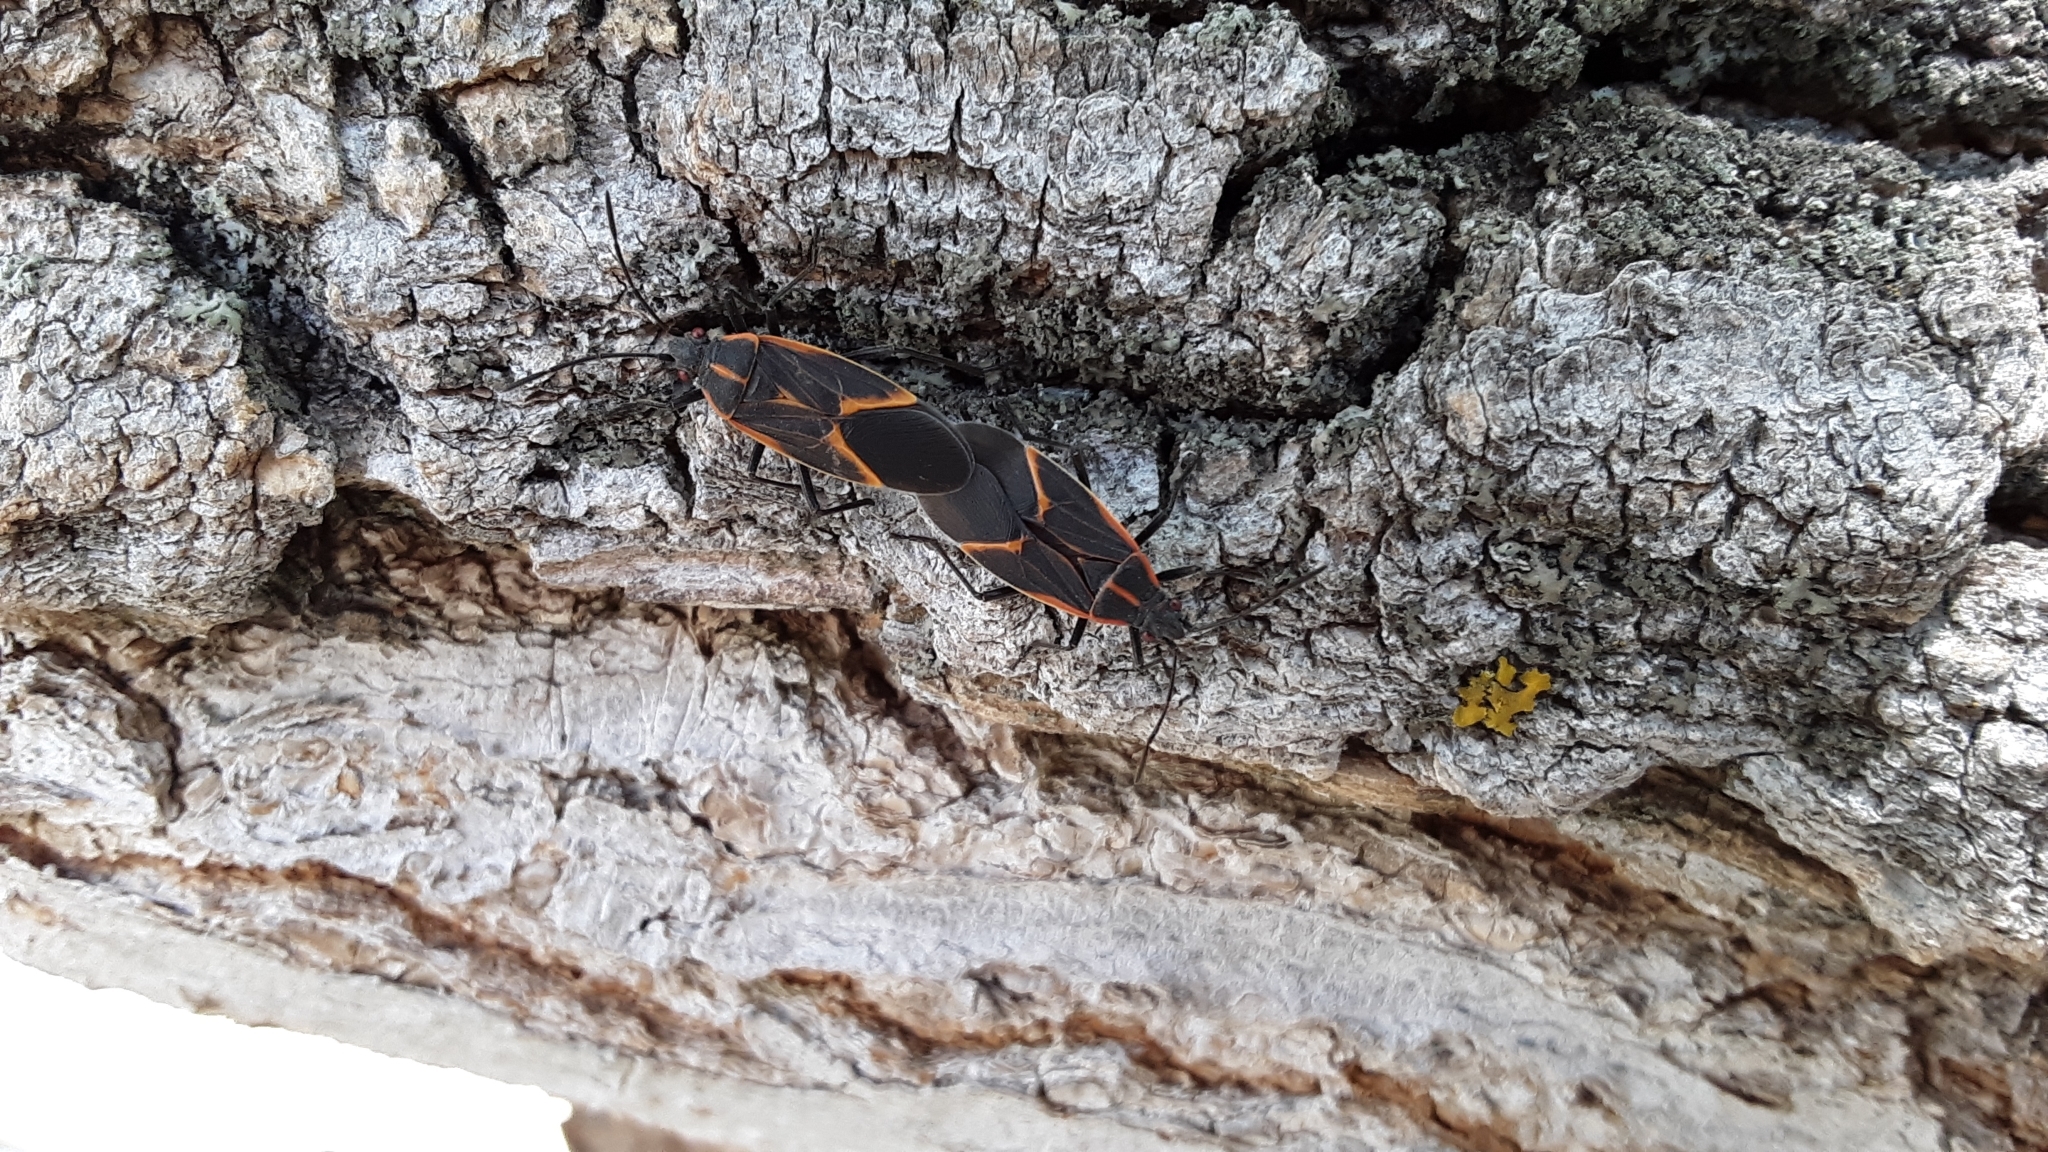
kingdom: Animalia
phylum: Arthropoda
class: Insecta
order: Hemiptera
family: Rhopalidae
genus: Boisea
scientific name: Boisea trivittata
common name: Boxelder bug
